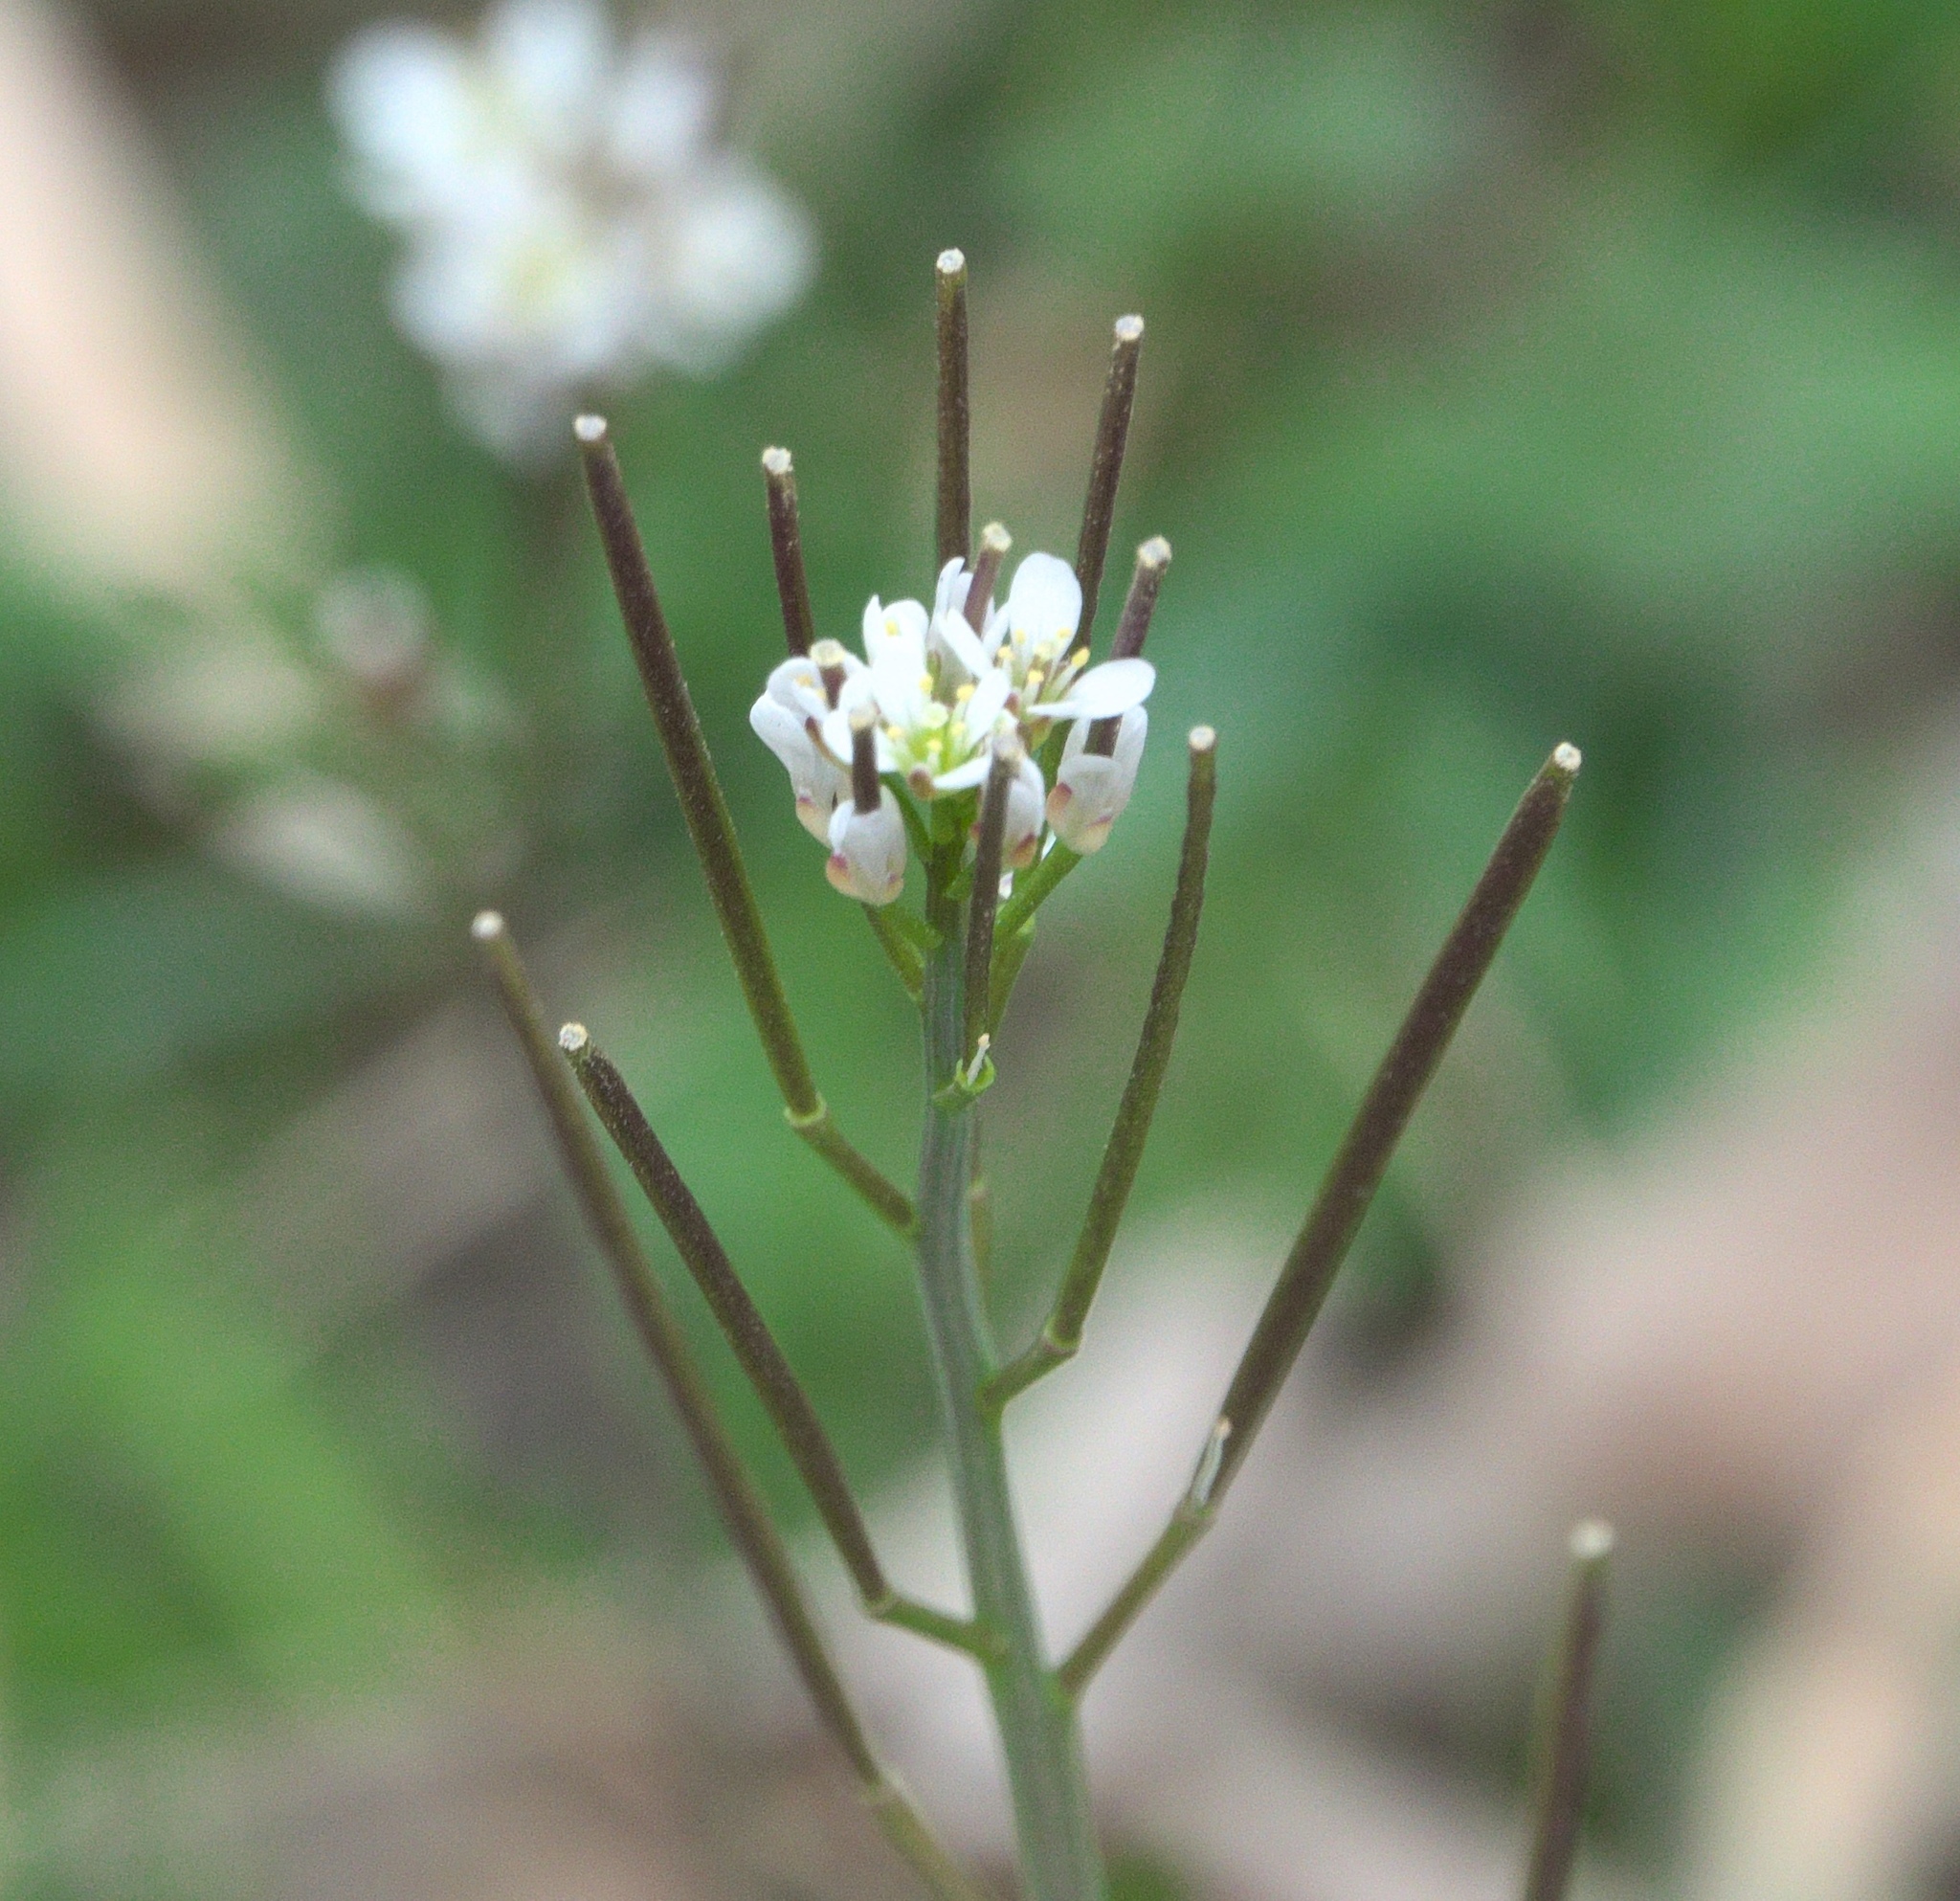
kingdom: Plantae
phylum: Tracheophyta
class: Magnoliopsida
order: Brassicales
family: Brassicaceae
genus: Cardamine
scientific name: Cardamine hirsuta
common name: Hairy bittercress
